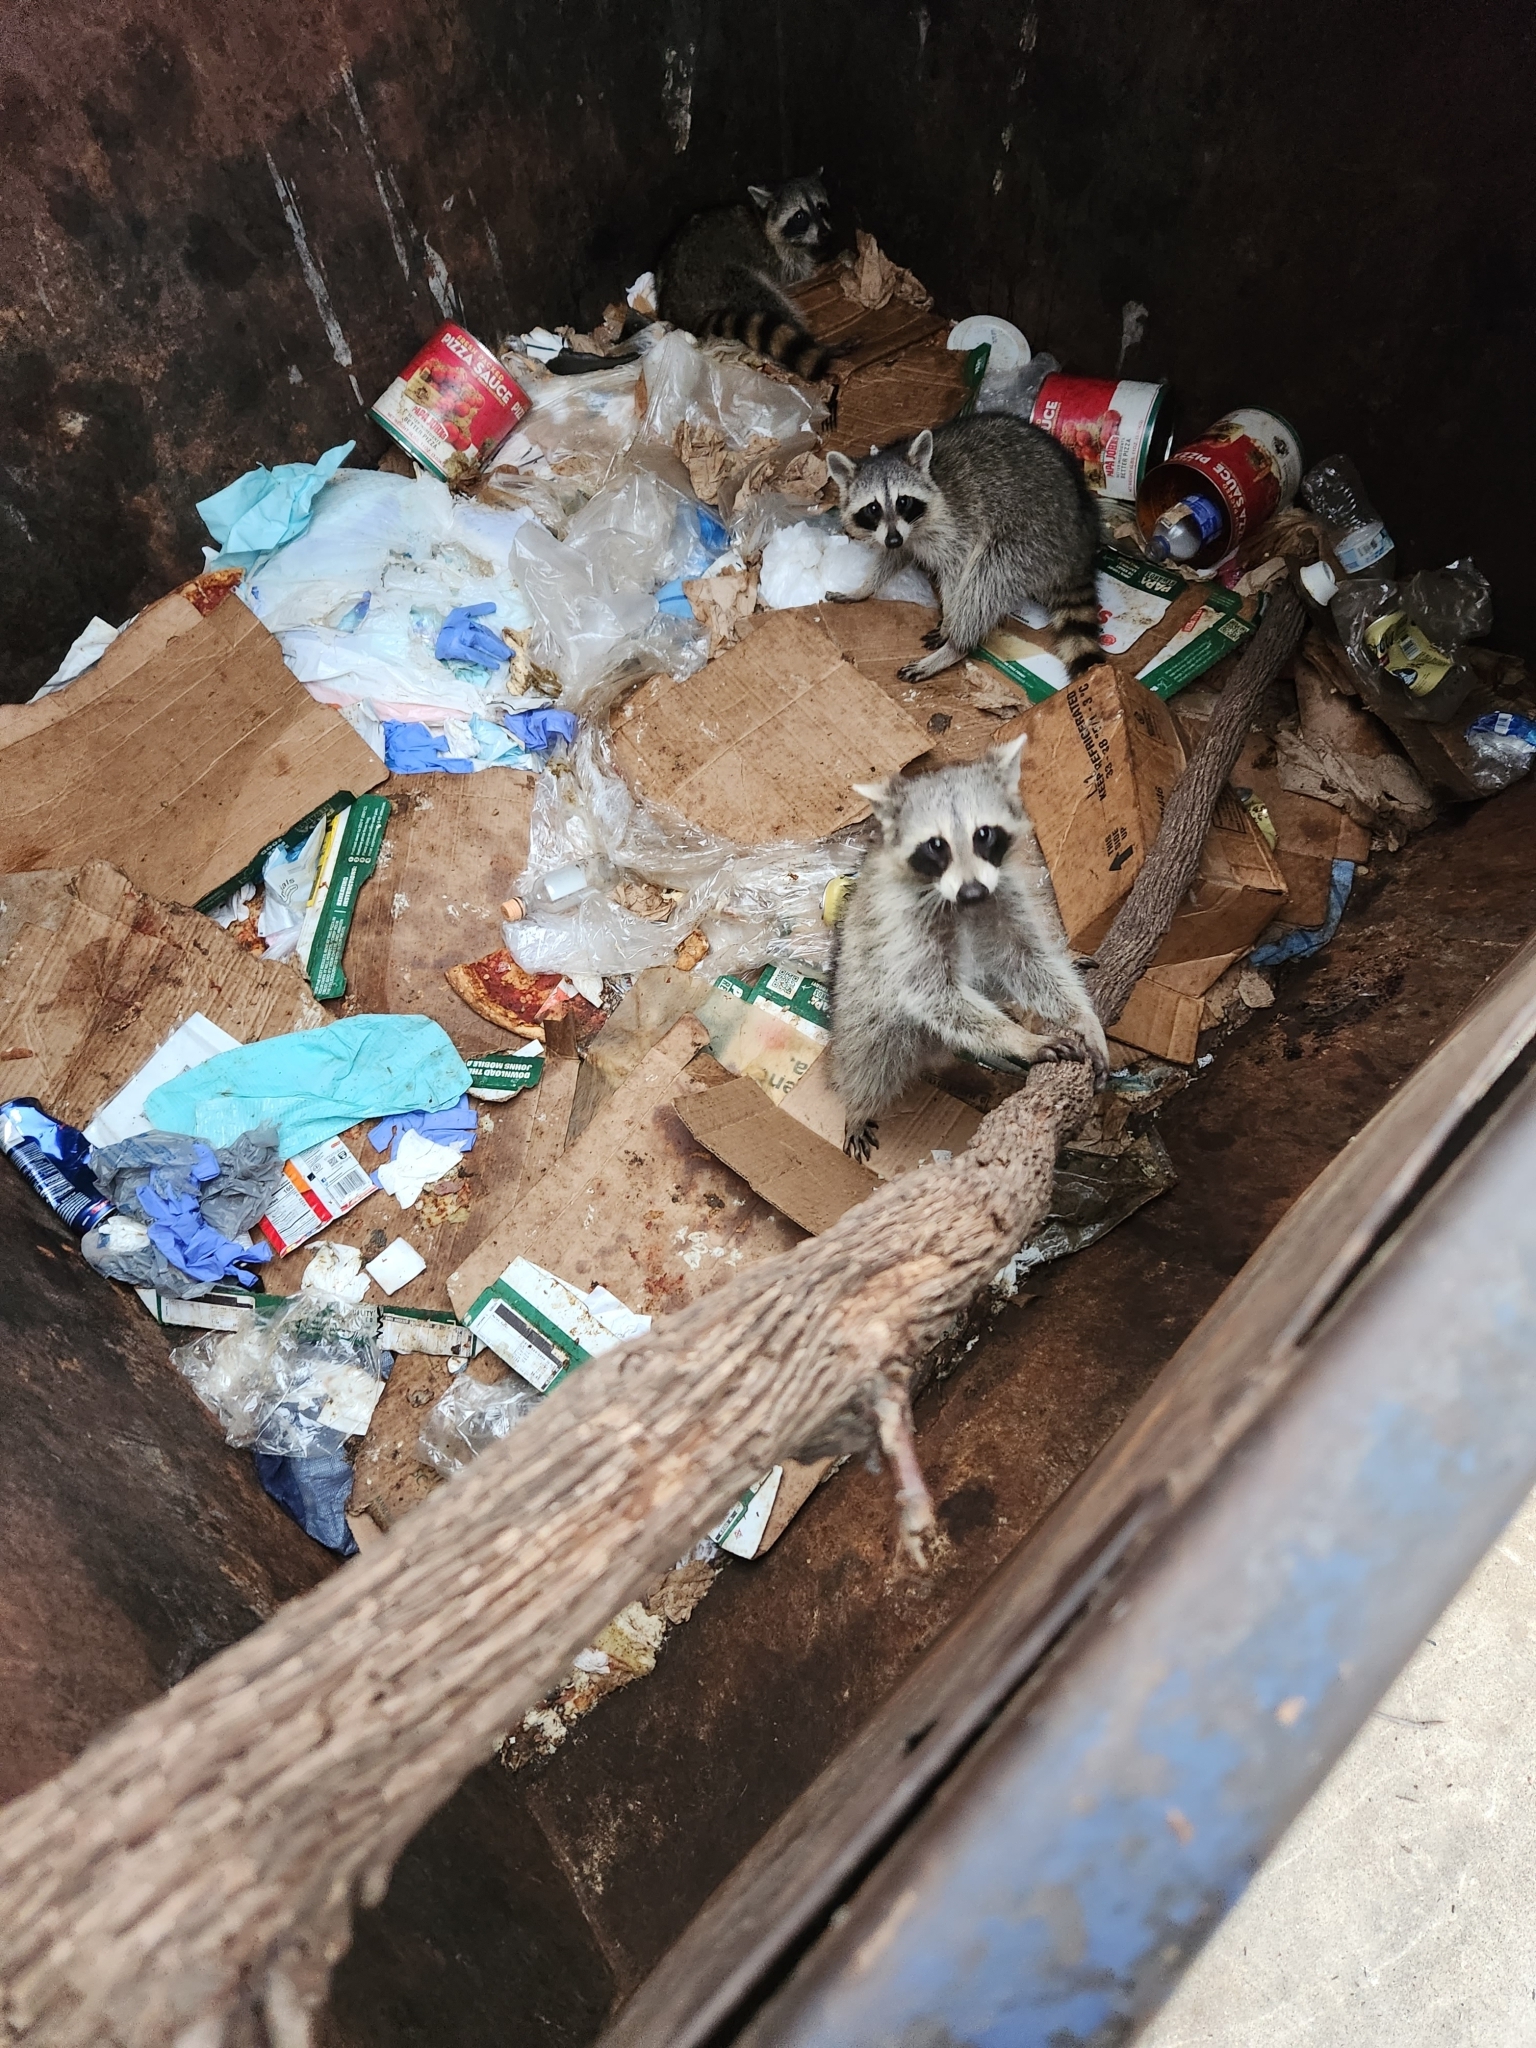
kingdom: Animalia
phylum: Chordata
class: Mammalia
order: Carnivora
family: Procyonidae
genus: Procyon
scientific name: Procyon lotor
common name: Raccoon
